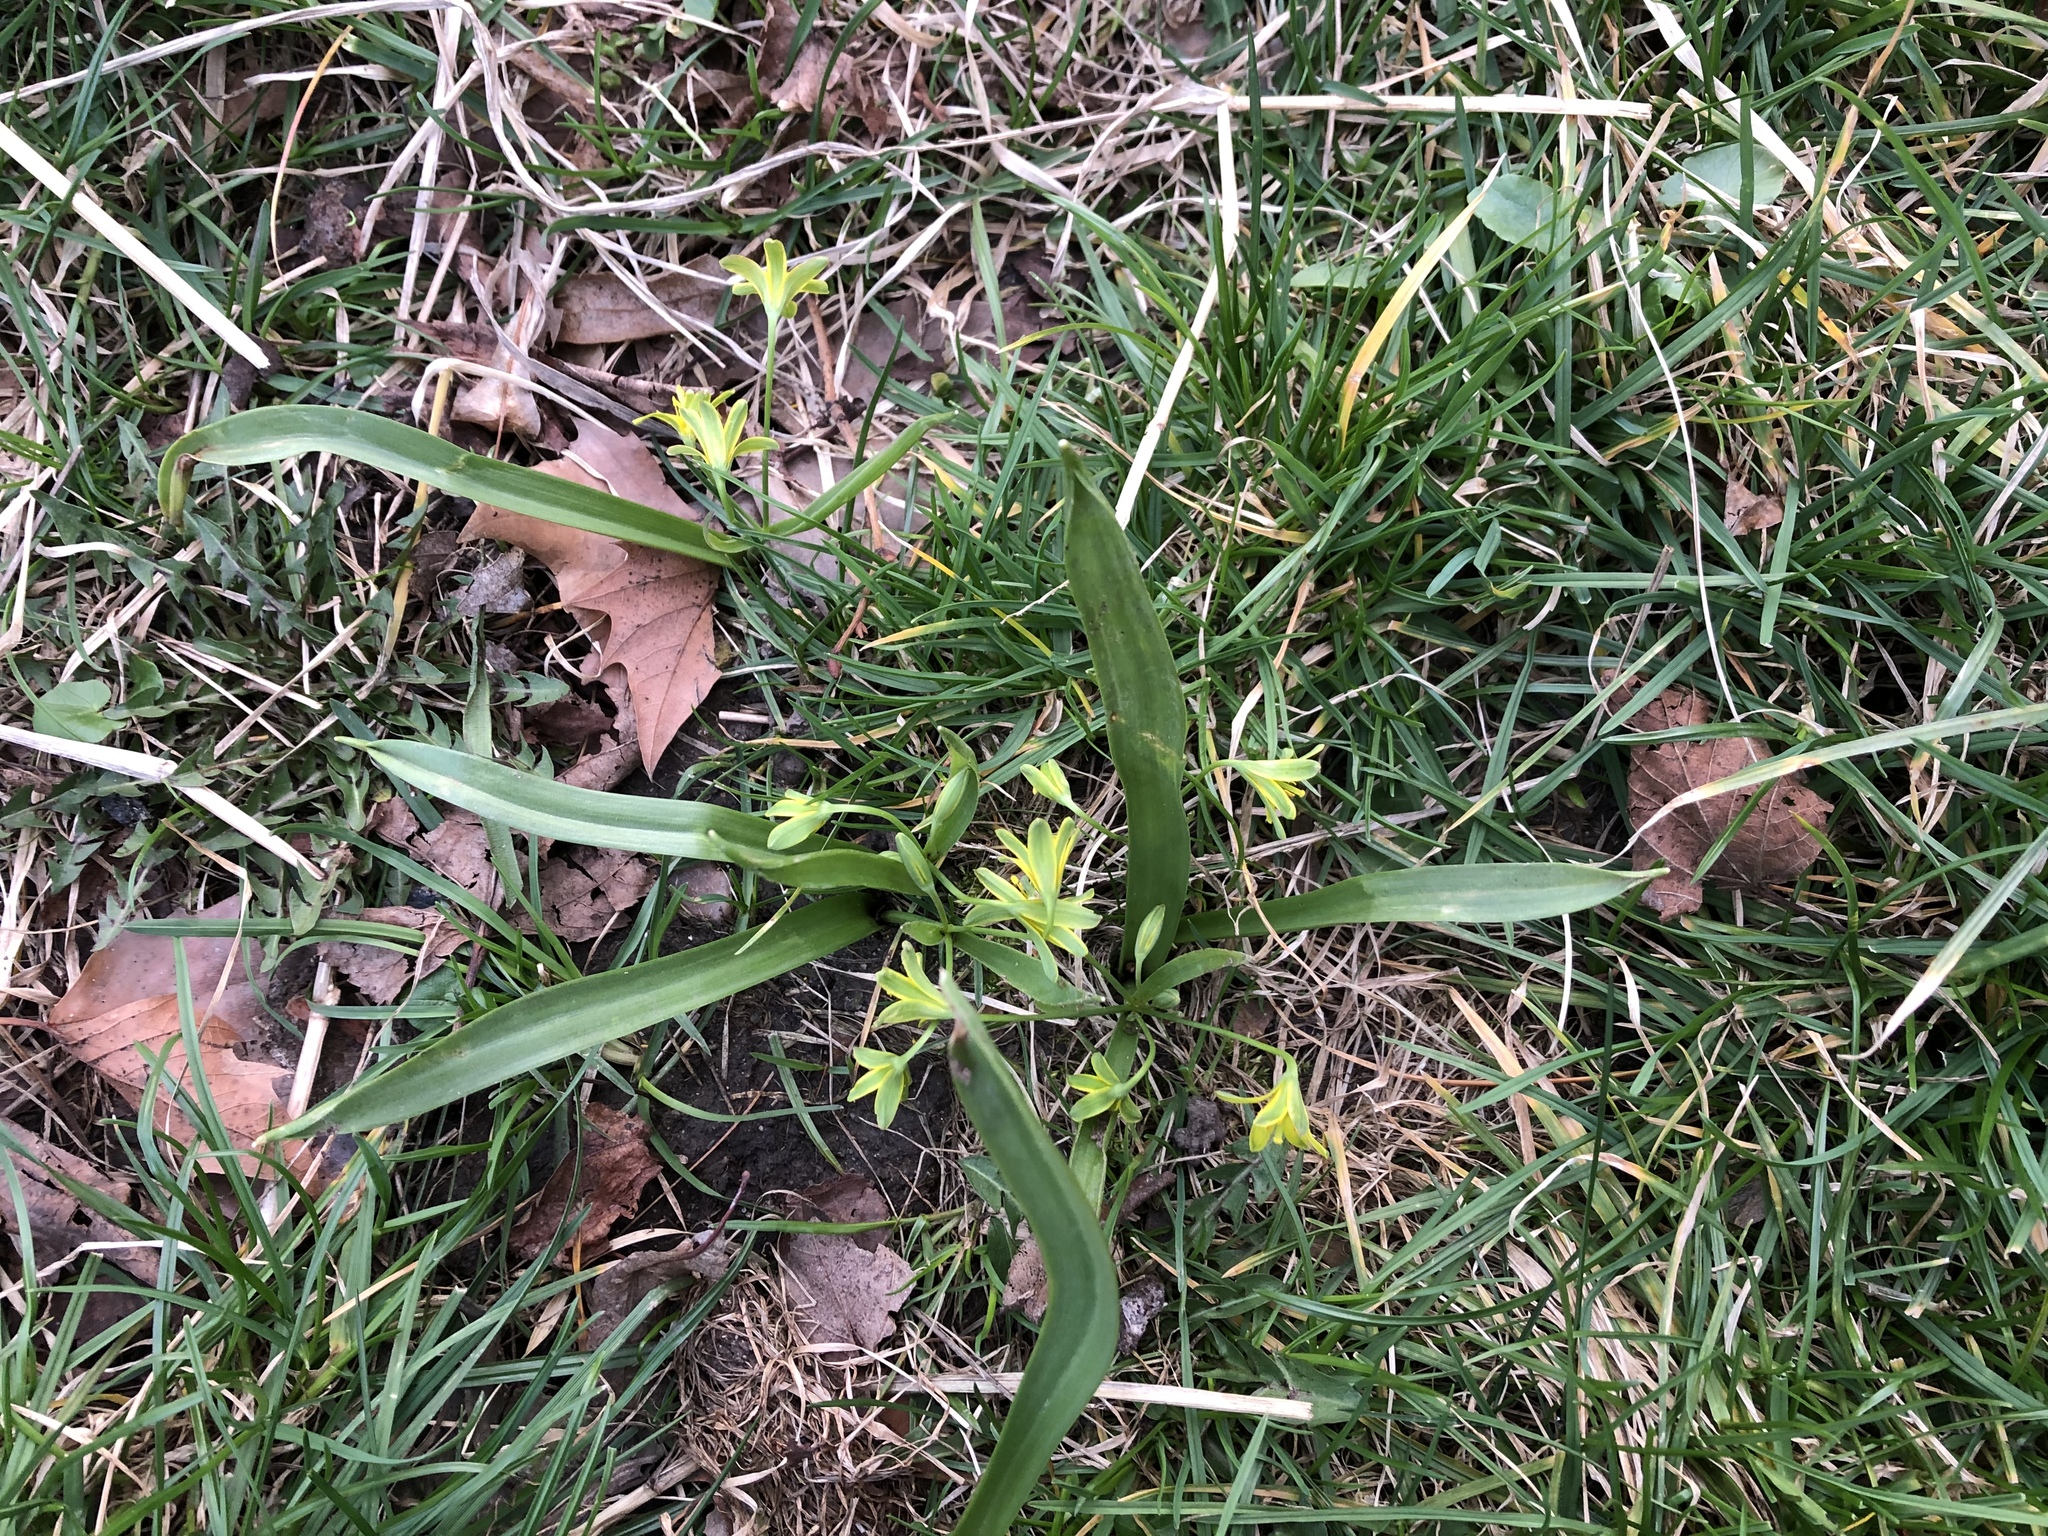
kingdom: Plantae
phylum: Tracheophyta
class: Liliopsida
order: Liliales
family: Liliaceae
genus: Gagea
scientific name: Gagea lutea
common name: Yellow star-of-bethlehem
